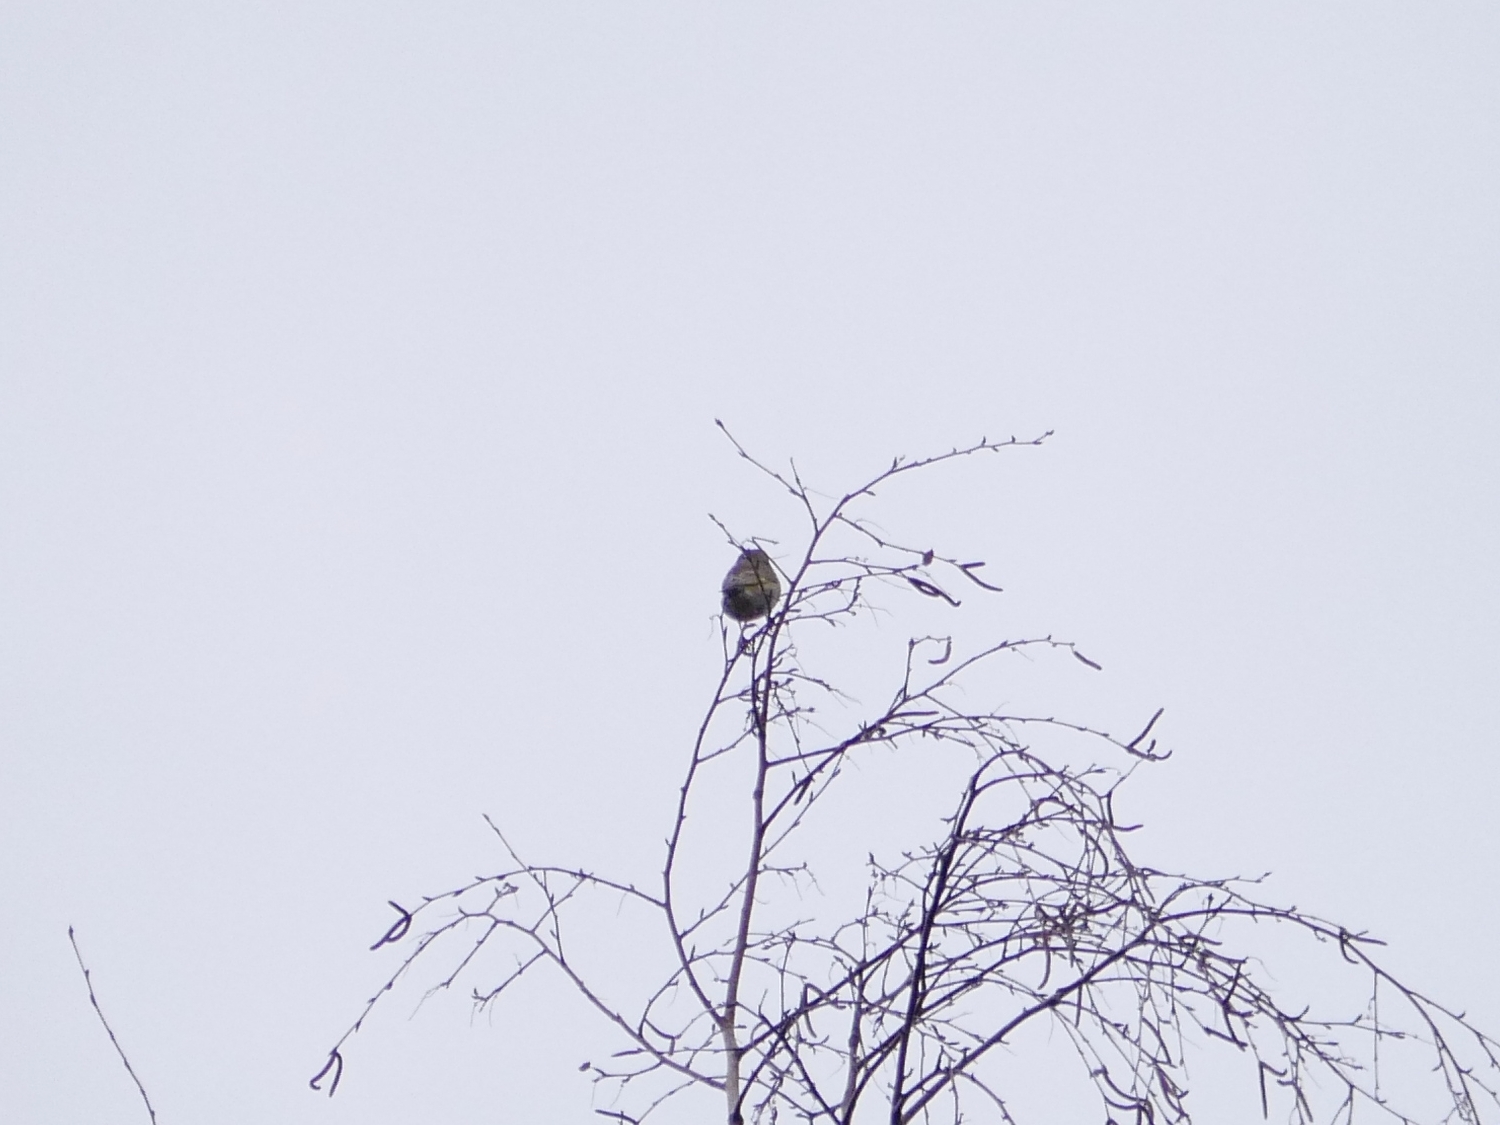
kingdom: Plantae
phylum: Tracheophyta
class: Liliopsida
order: Poales
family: Poaceae
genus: Chloris
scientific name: Chloris chloris
